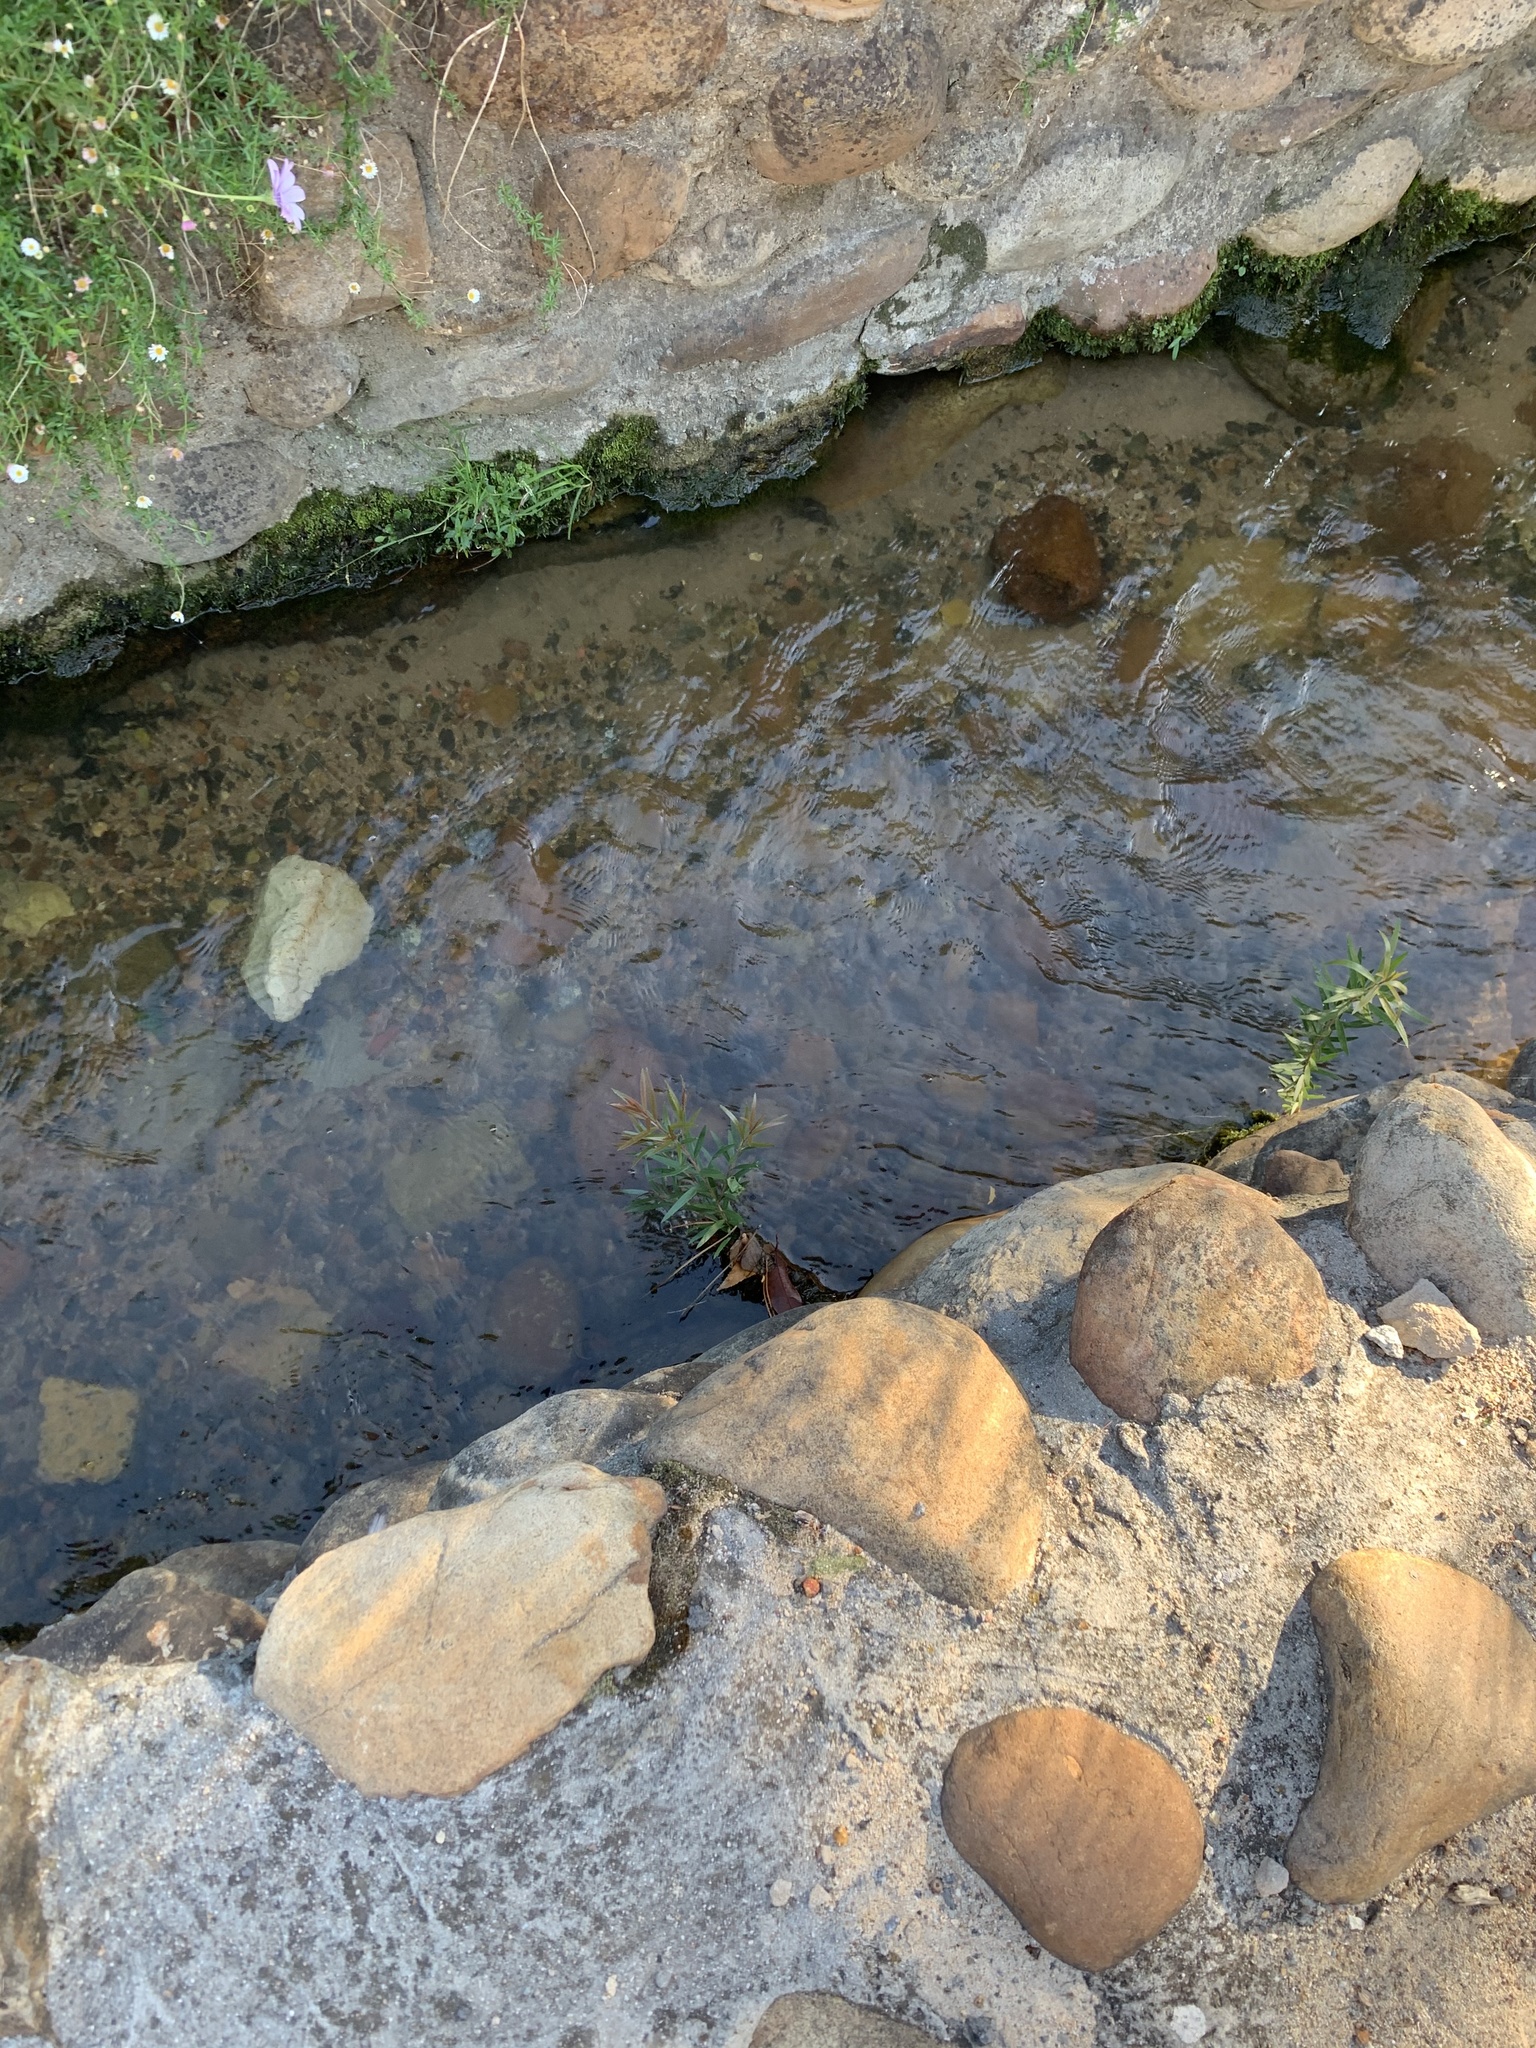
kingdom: Plantae
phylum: Tracheophyta
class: Magnoliopsida
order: Myrtales
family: Myrtaceae
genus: Callistemon
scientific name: Callistemon viminalis
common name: Drooping bottlebrush
